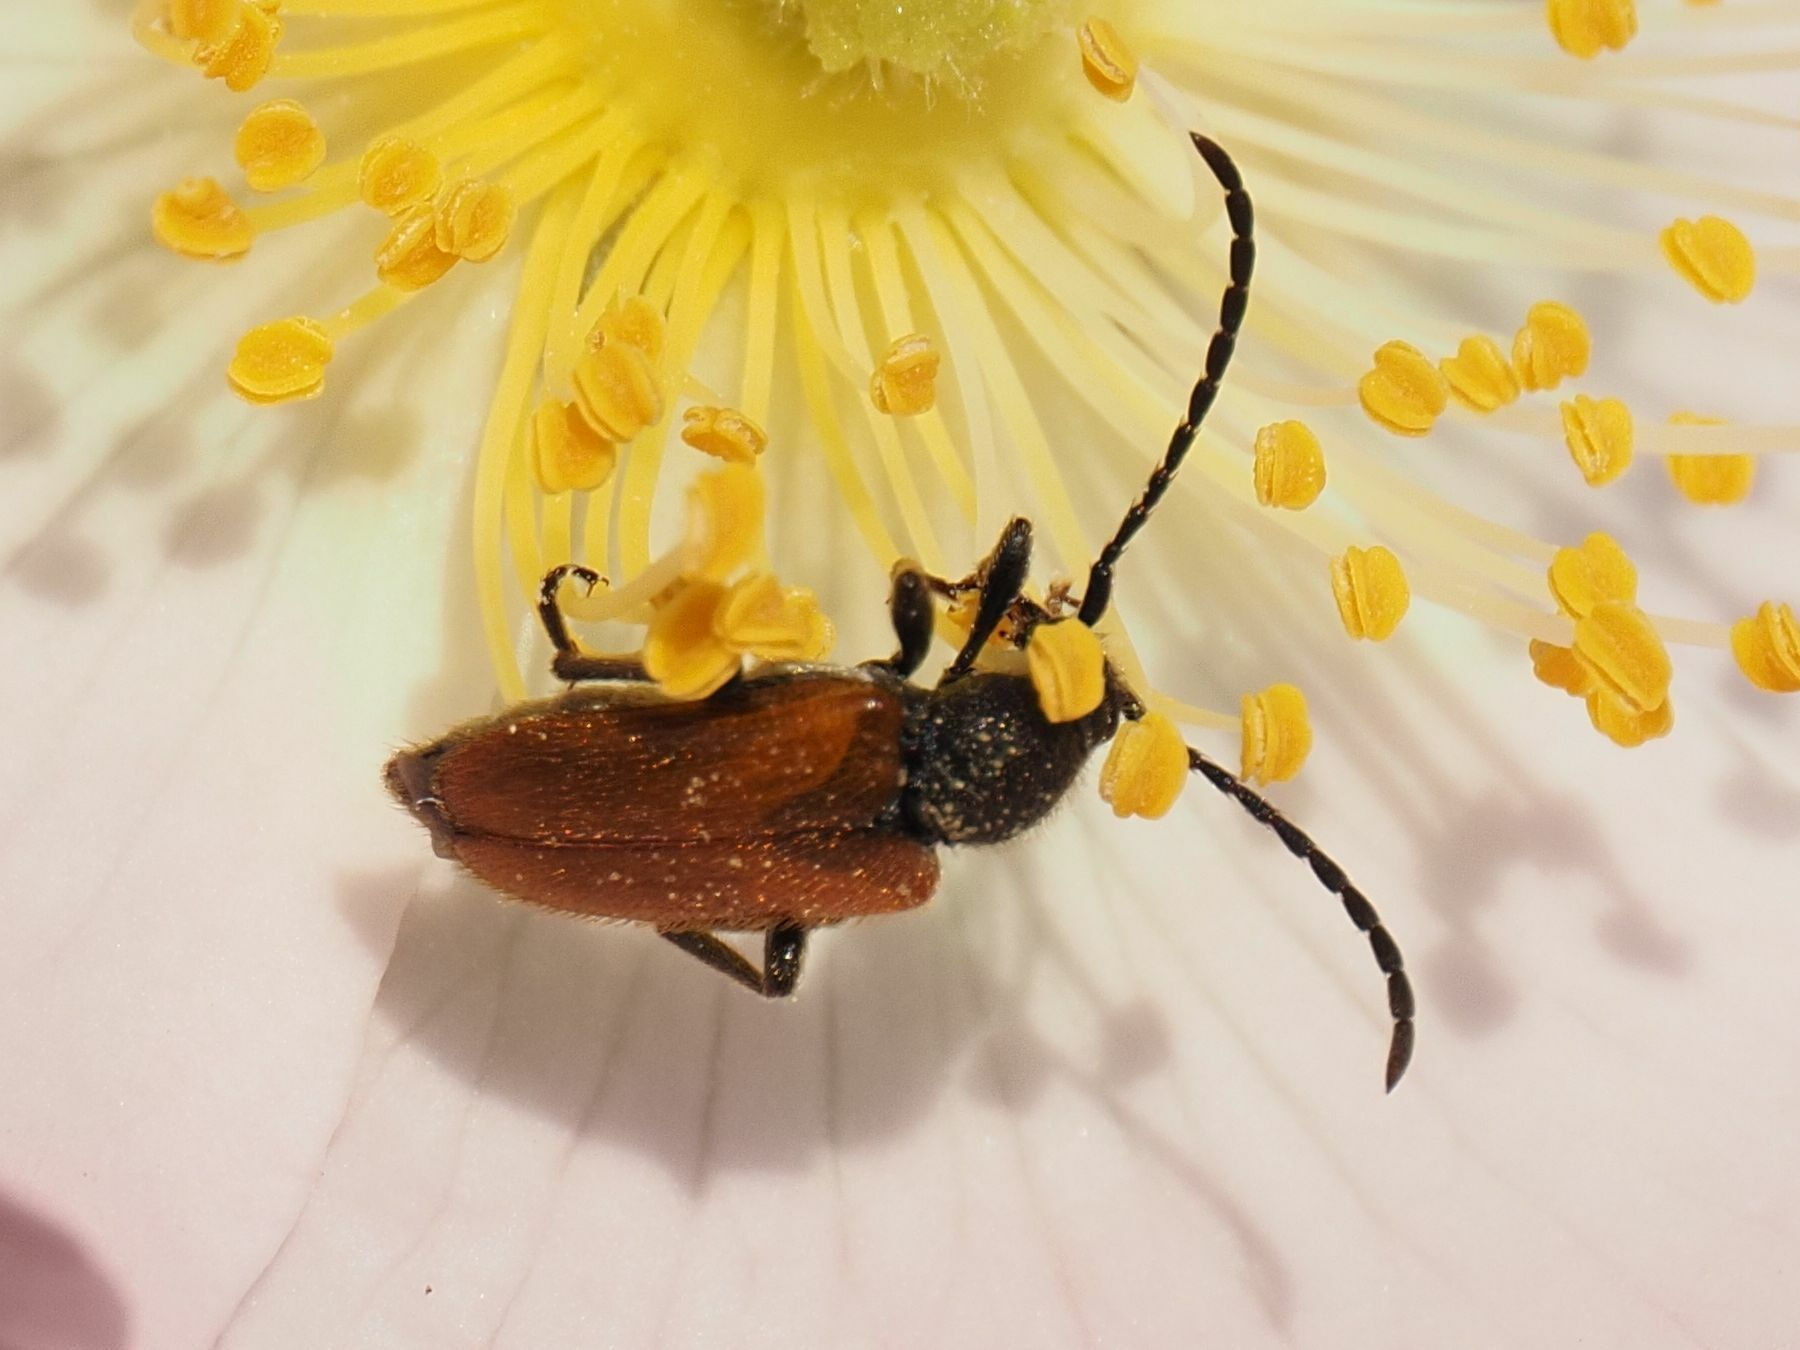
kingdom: Animalia
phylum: Arthropoda
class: Insecta
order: Diptera
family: Syrphidae
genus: Syritta
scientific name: Syritta pipiens
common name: Hover fly
